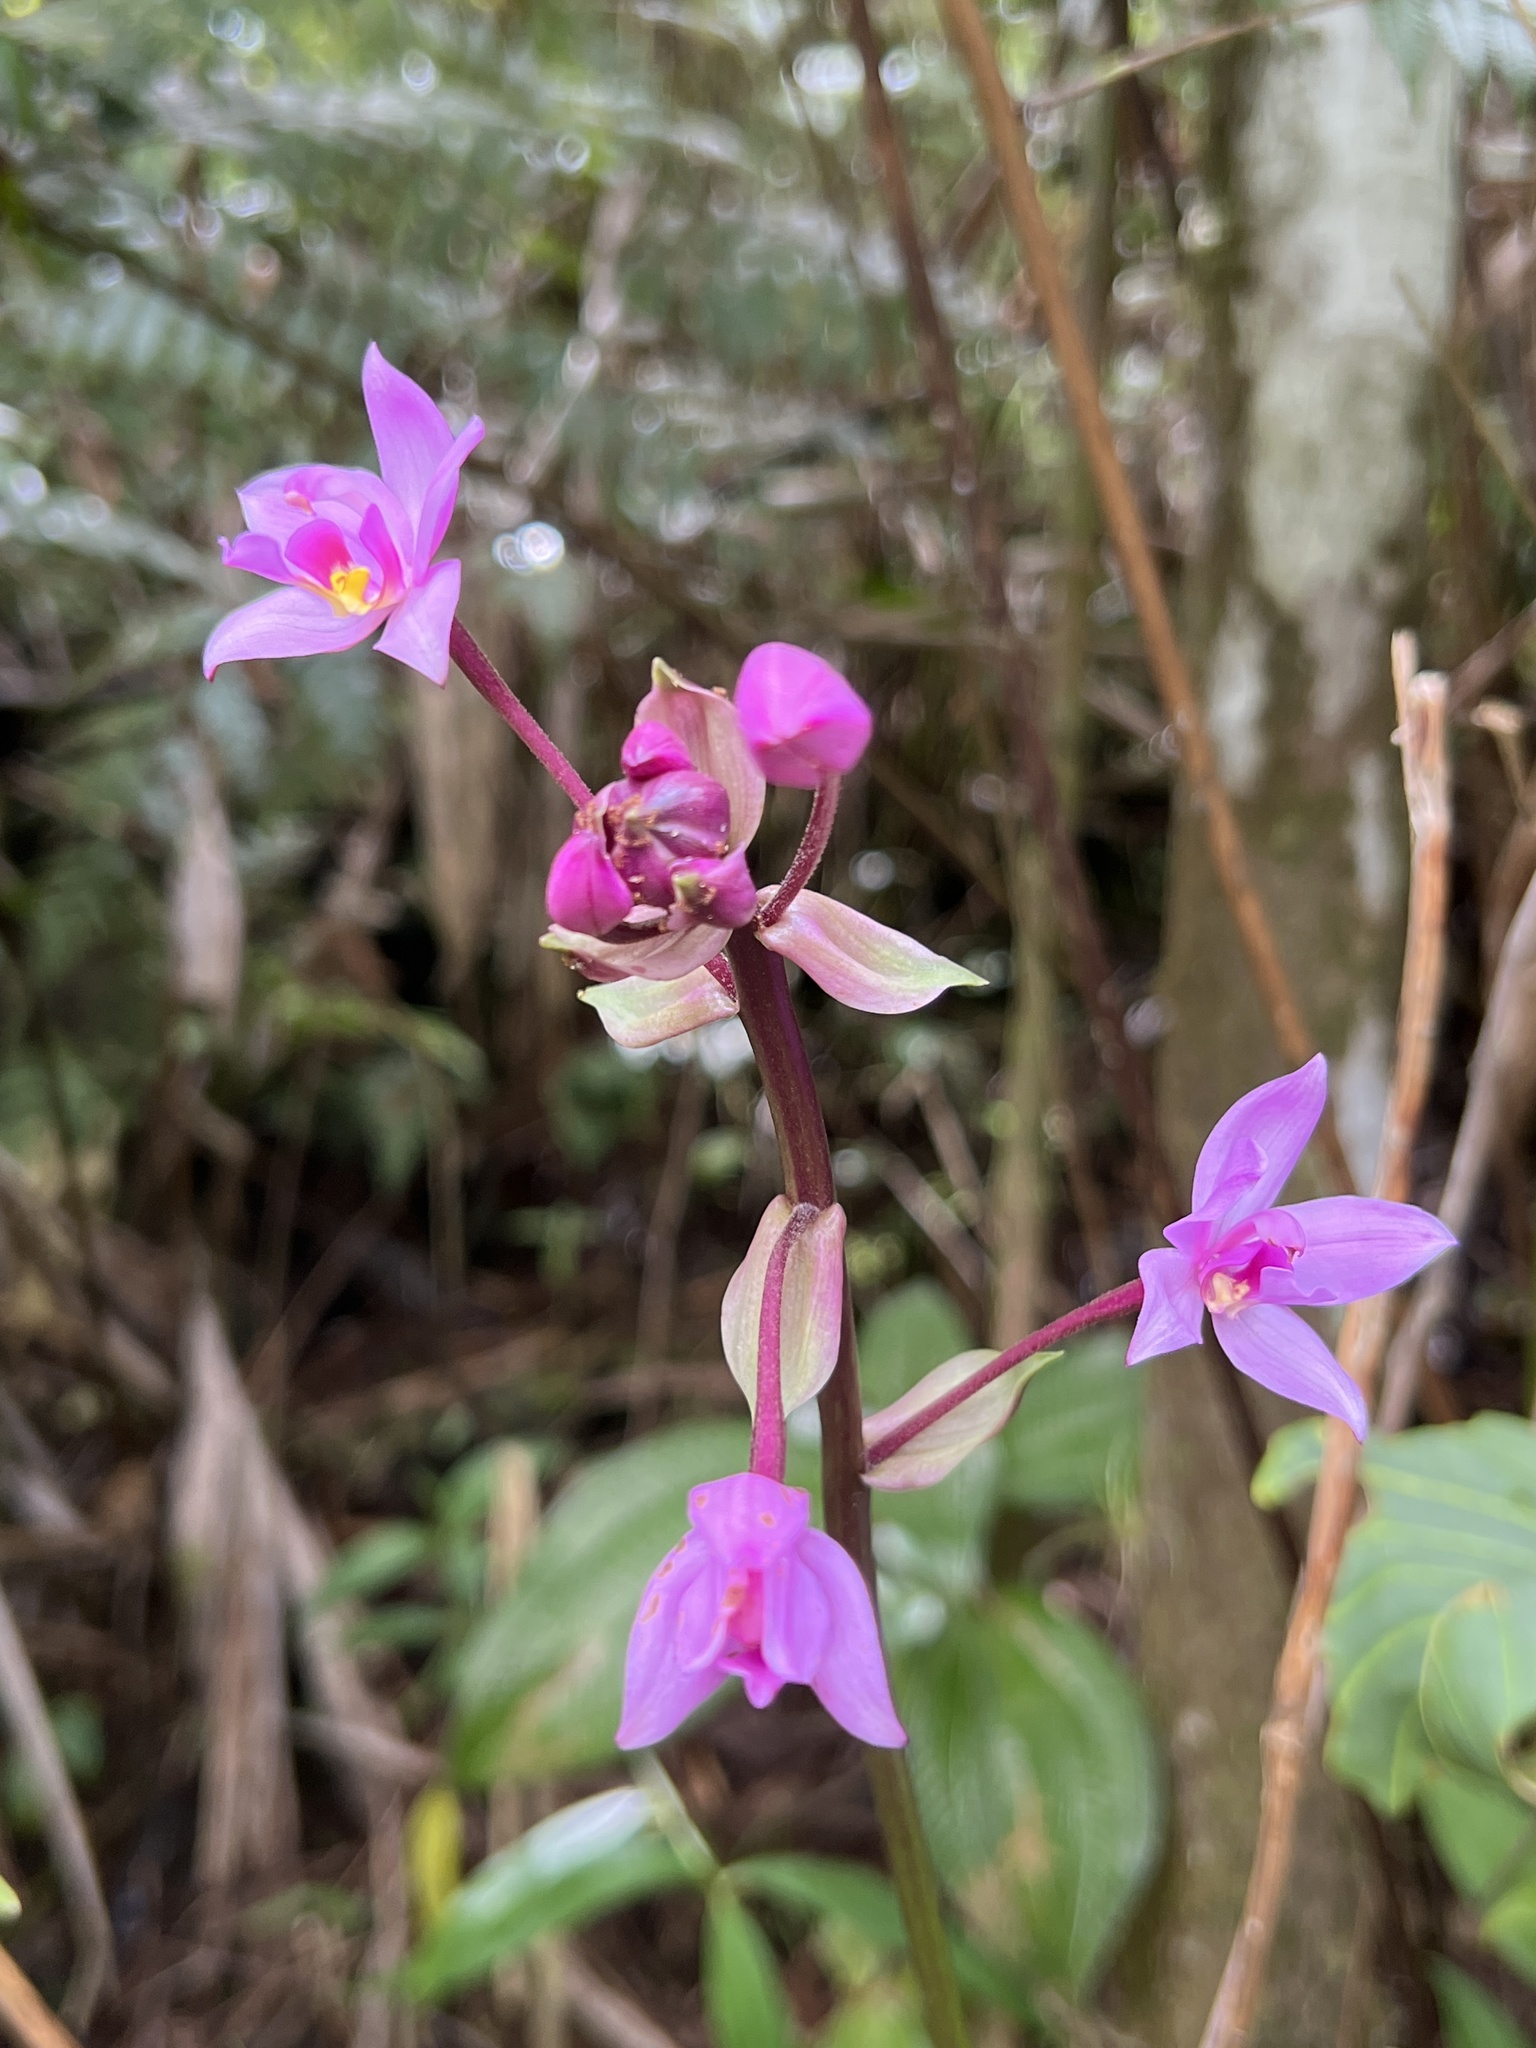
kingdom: Plantae
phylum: Tracheophyta
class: Liliopsida
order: Asparagales
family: Orchidaceae
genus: Spathoglottis
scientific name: Spathoglottis plicata
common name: Philippine ground orchid
